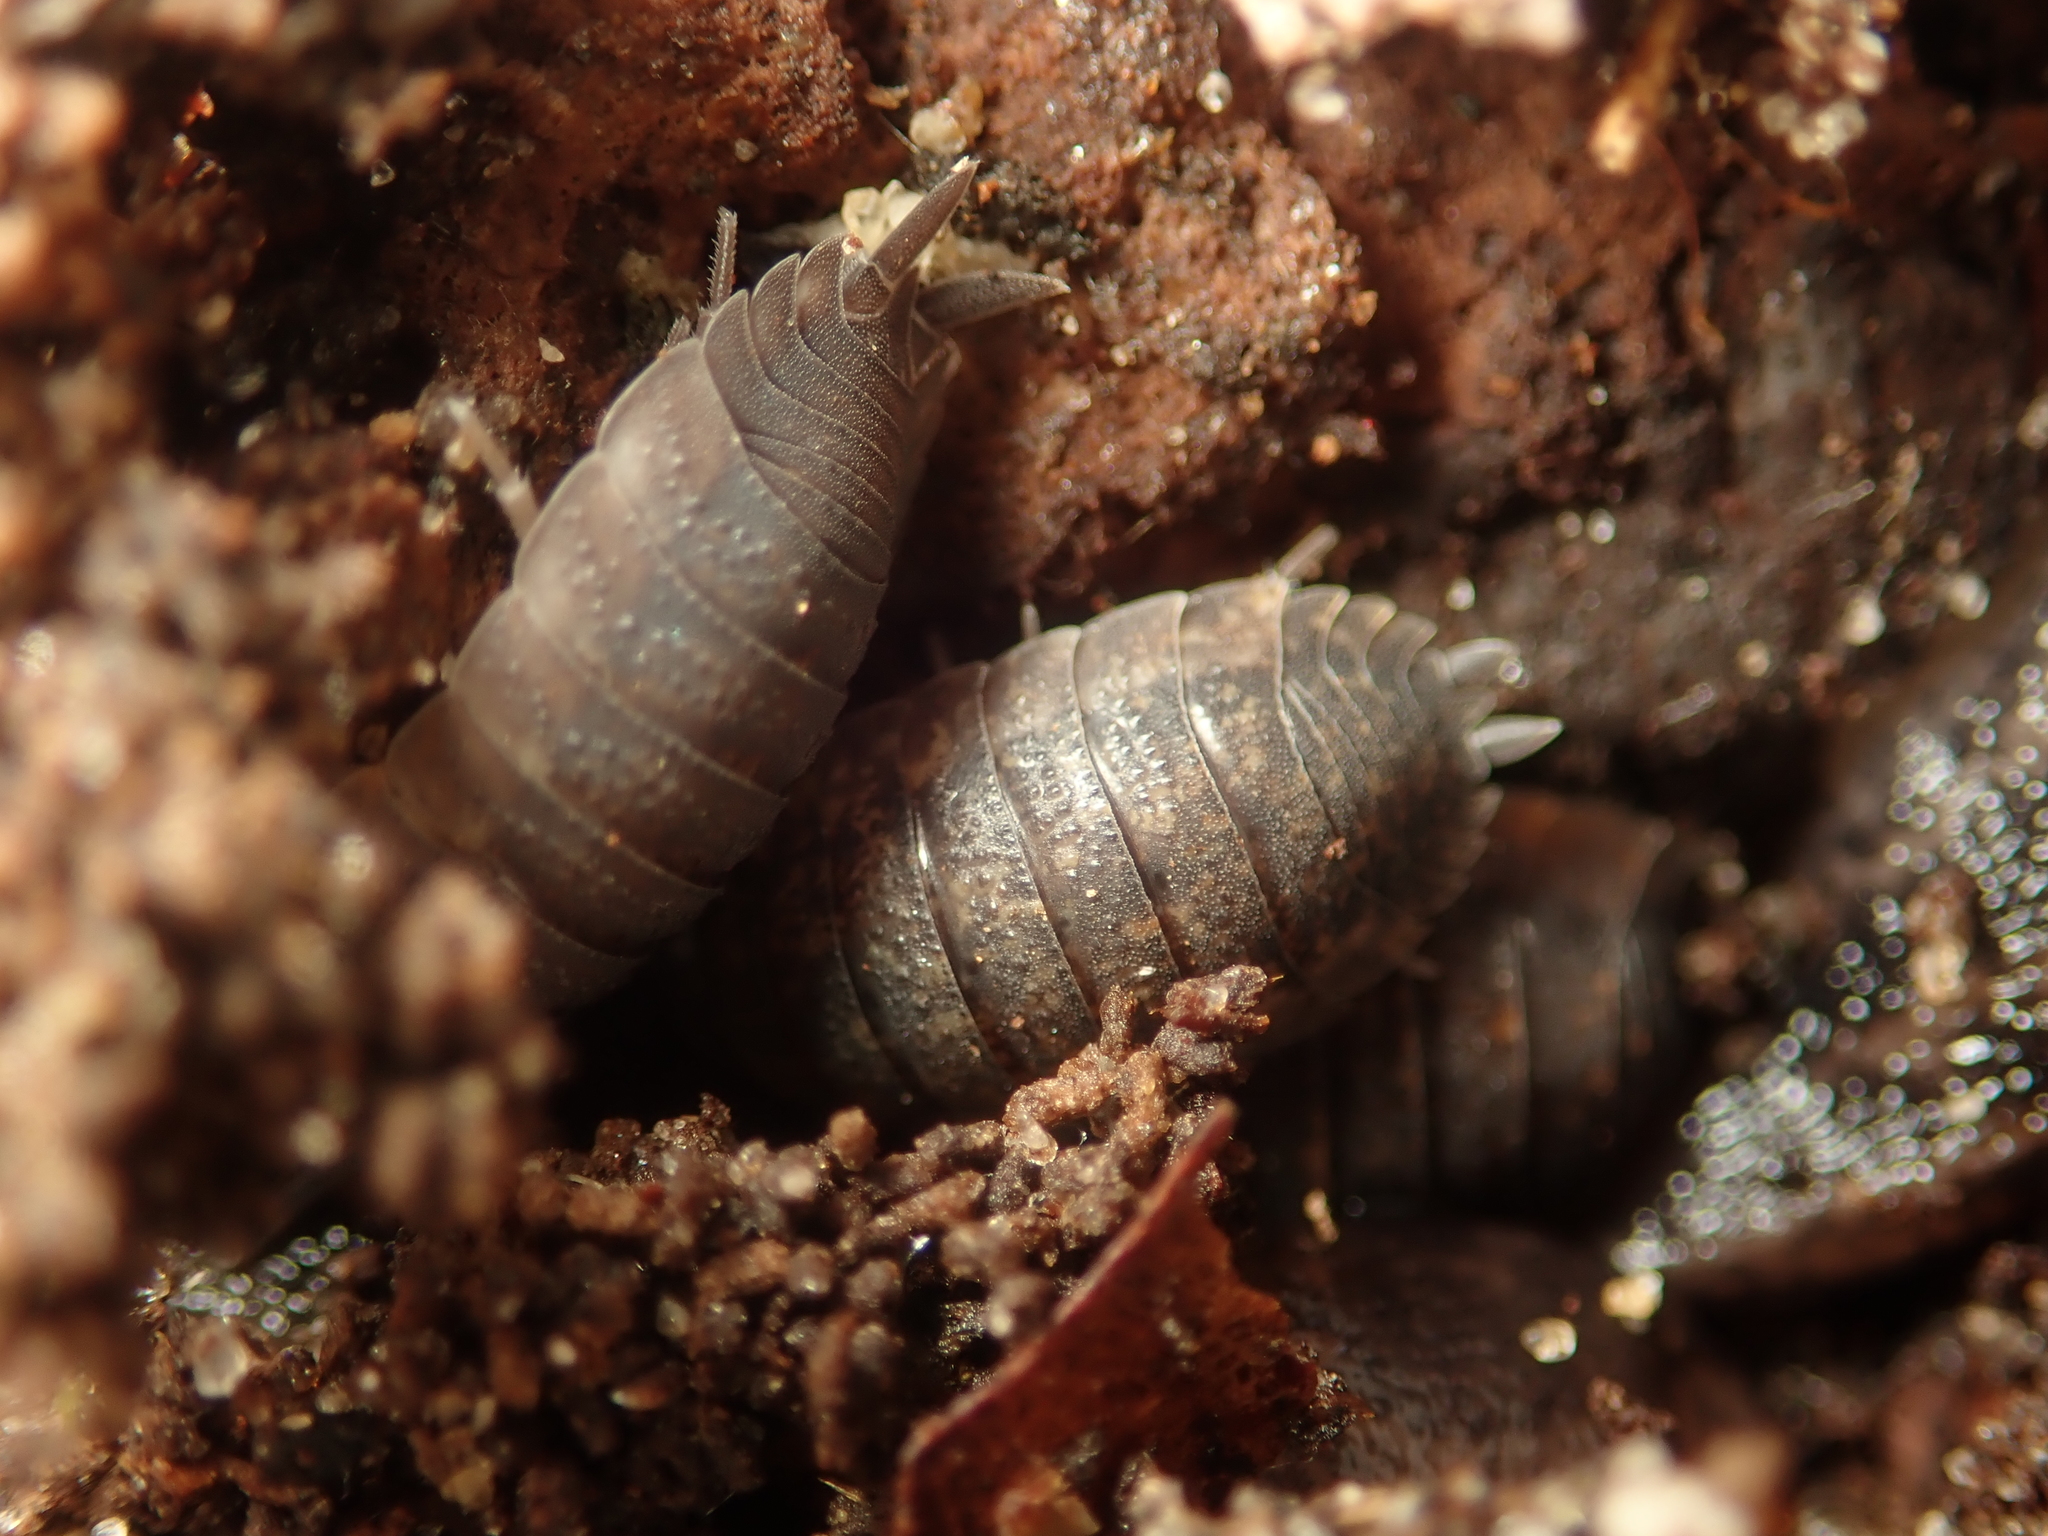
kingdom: Animalia
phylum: Arthropoda
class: Malacostraca
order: Isopoda
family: Porcellionidae
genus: Porcellio
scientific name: Porcellio scaber
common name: Common rough woodlouse
